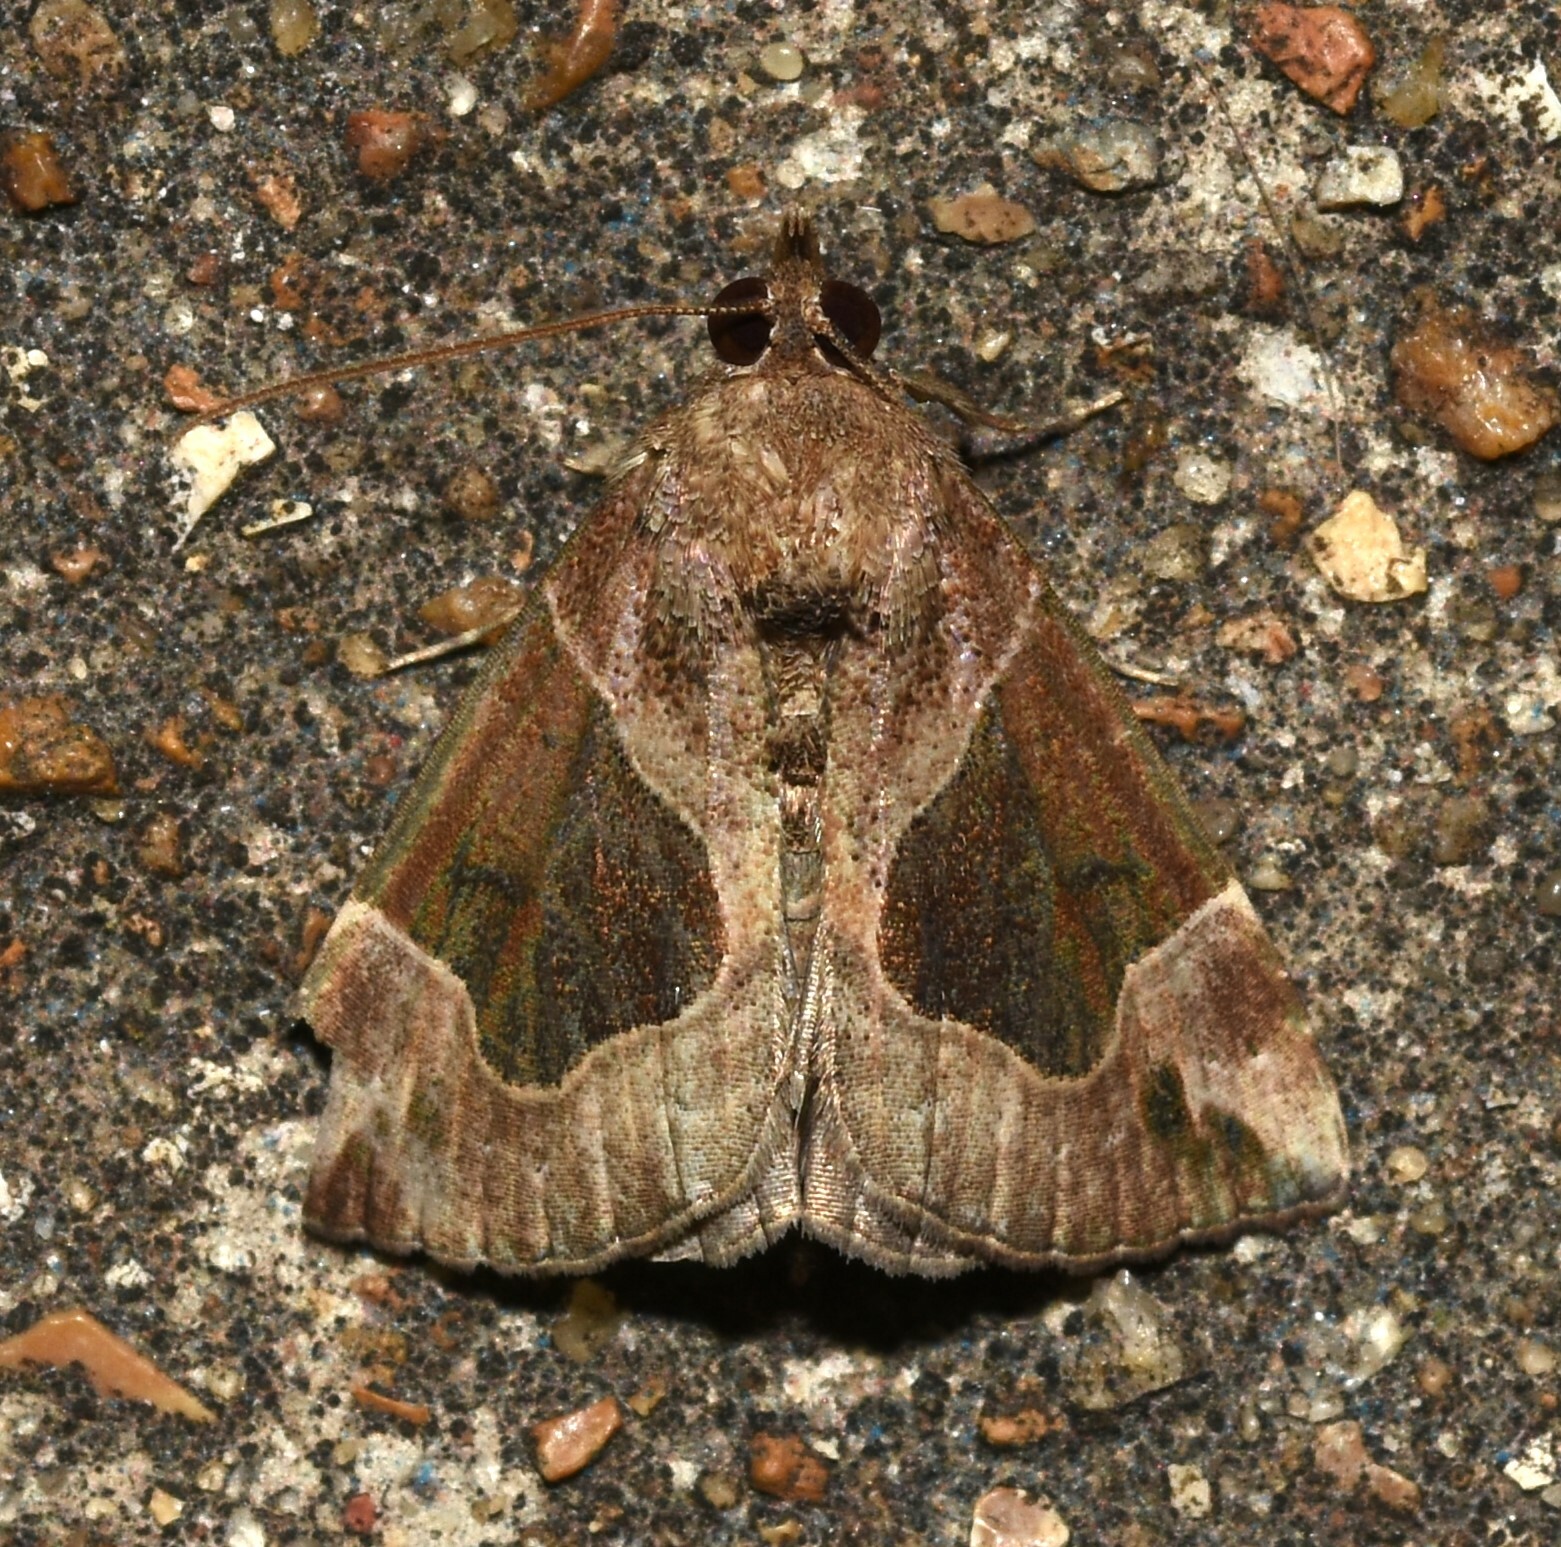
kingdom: Animalia
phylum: Arthropoda
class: Insecta
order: Lepidoptera
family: Erebidae
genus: Hypena
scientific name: Hypena manalis
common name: Flowing-line bomolocha moth
